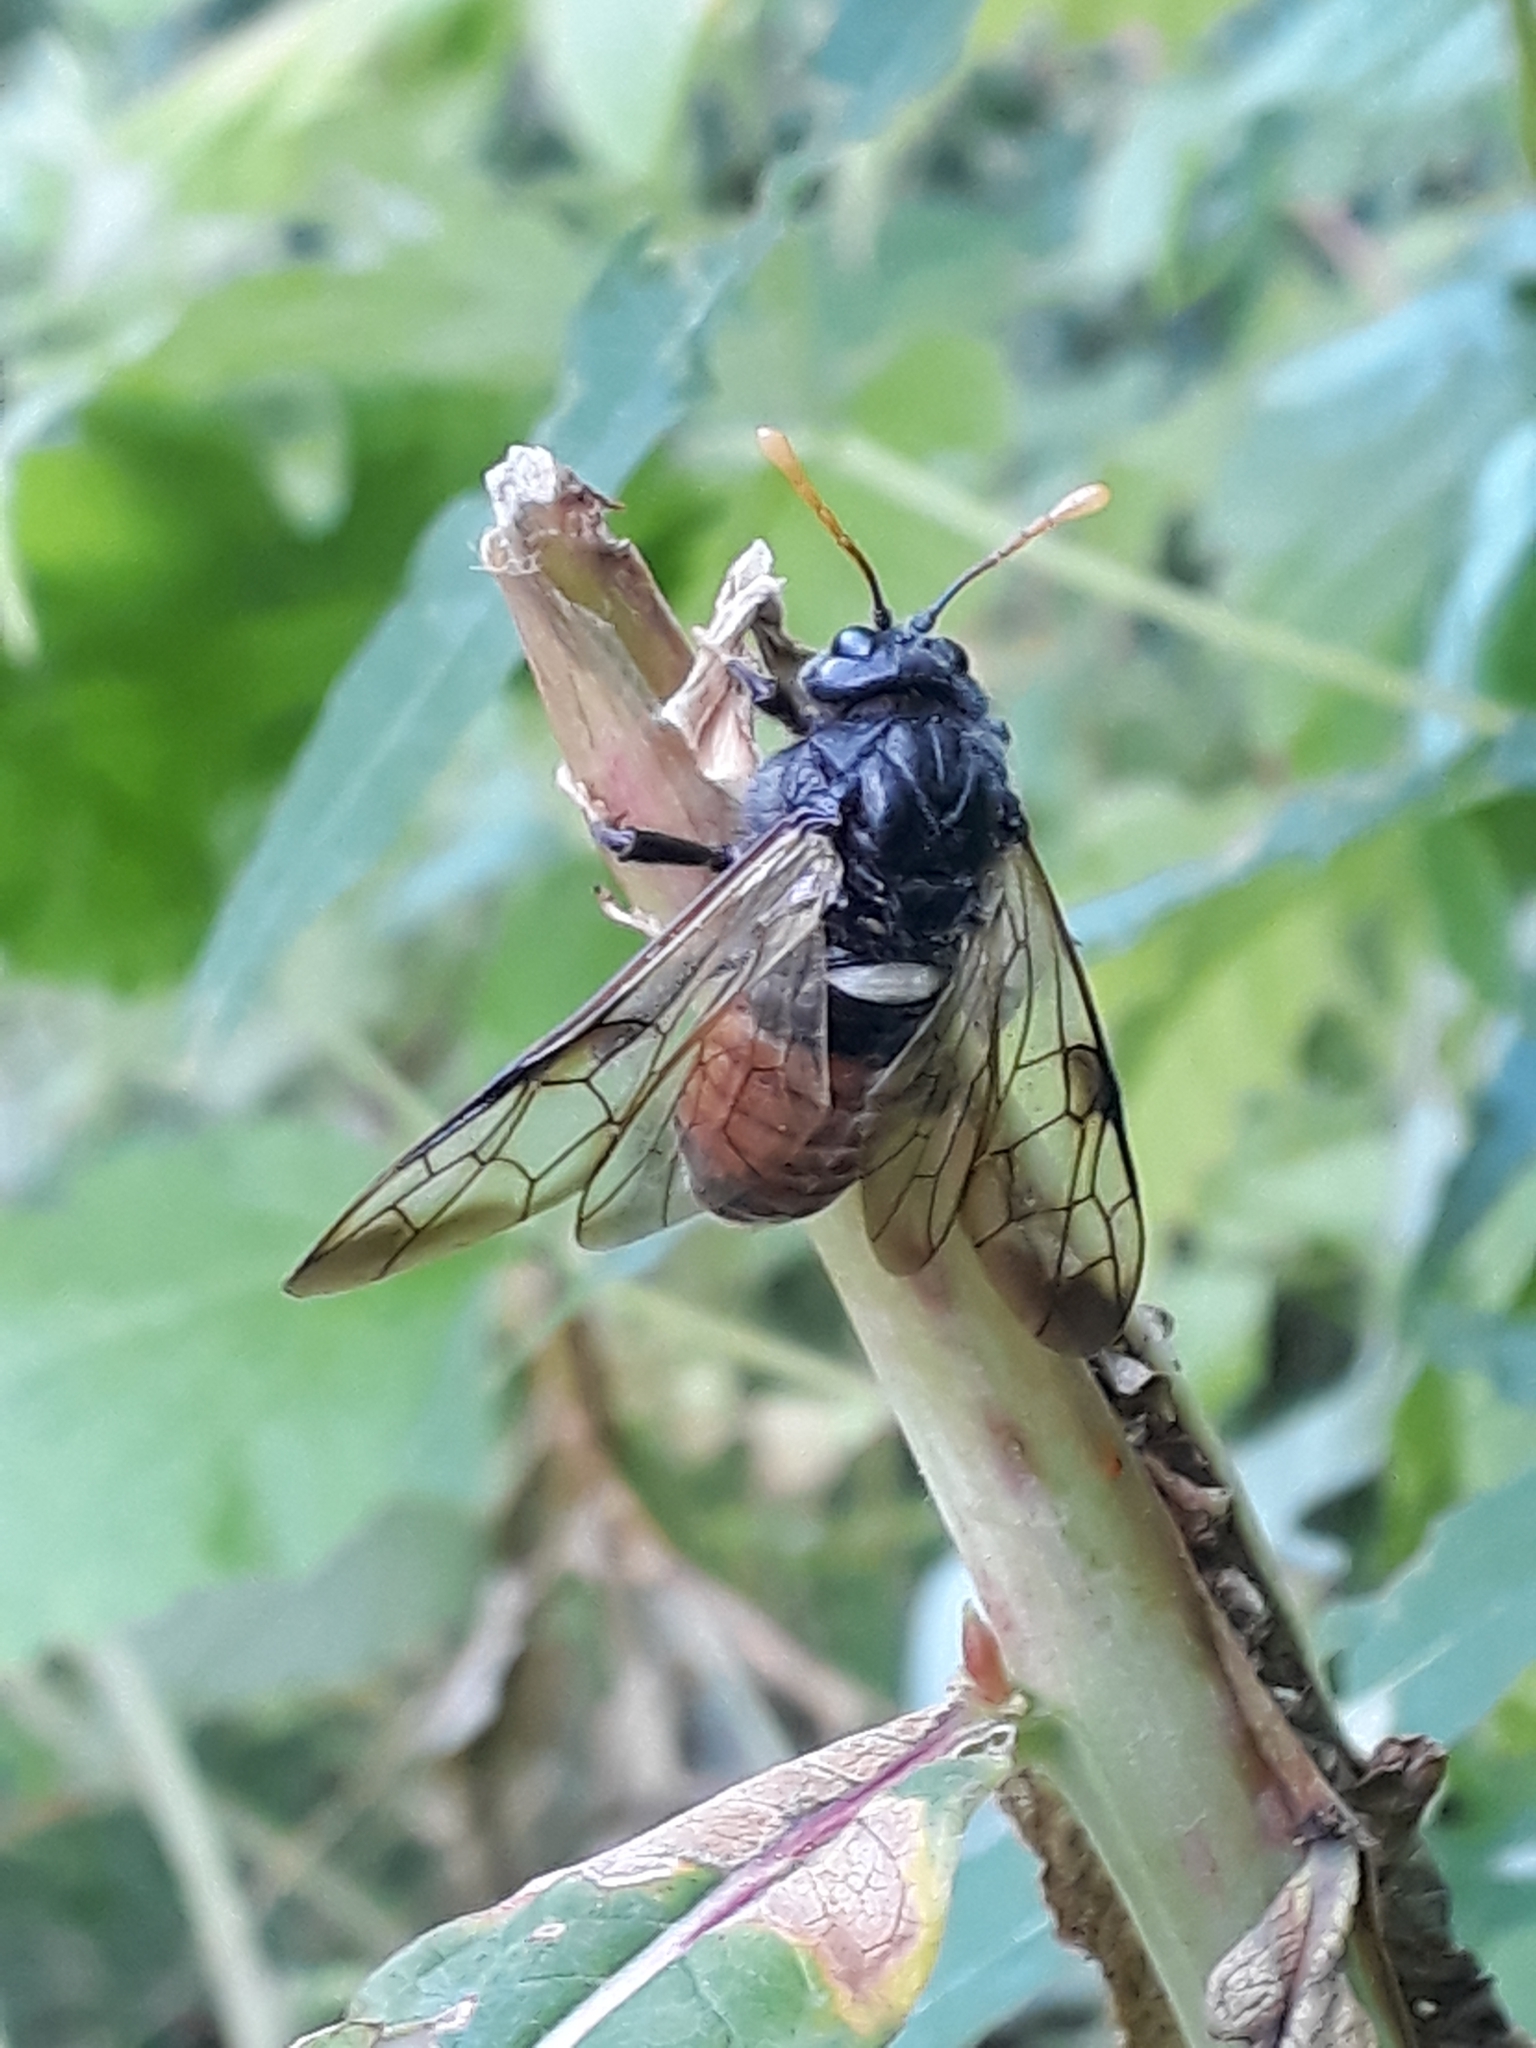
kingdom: Animalia
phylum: Arthropoda
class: Insecta
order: Hymenoptera
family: Cimbicidae
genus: Cimbex
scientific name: Cimbex femoratus
